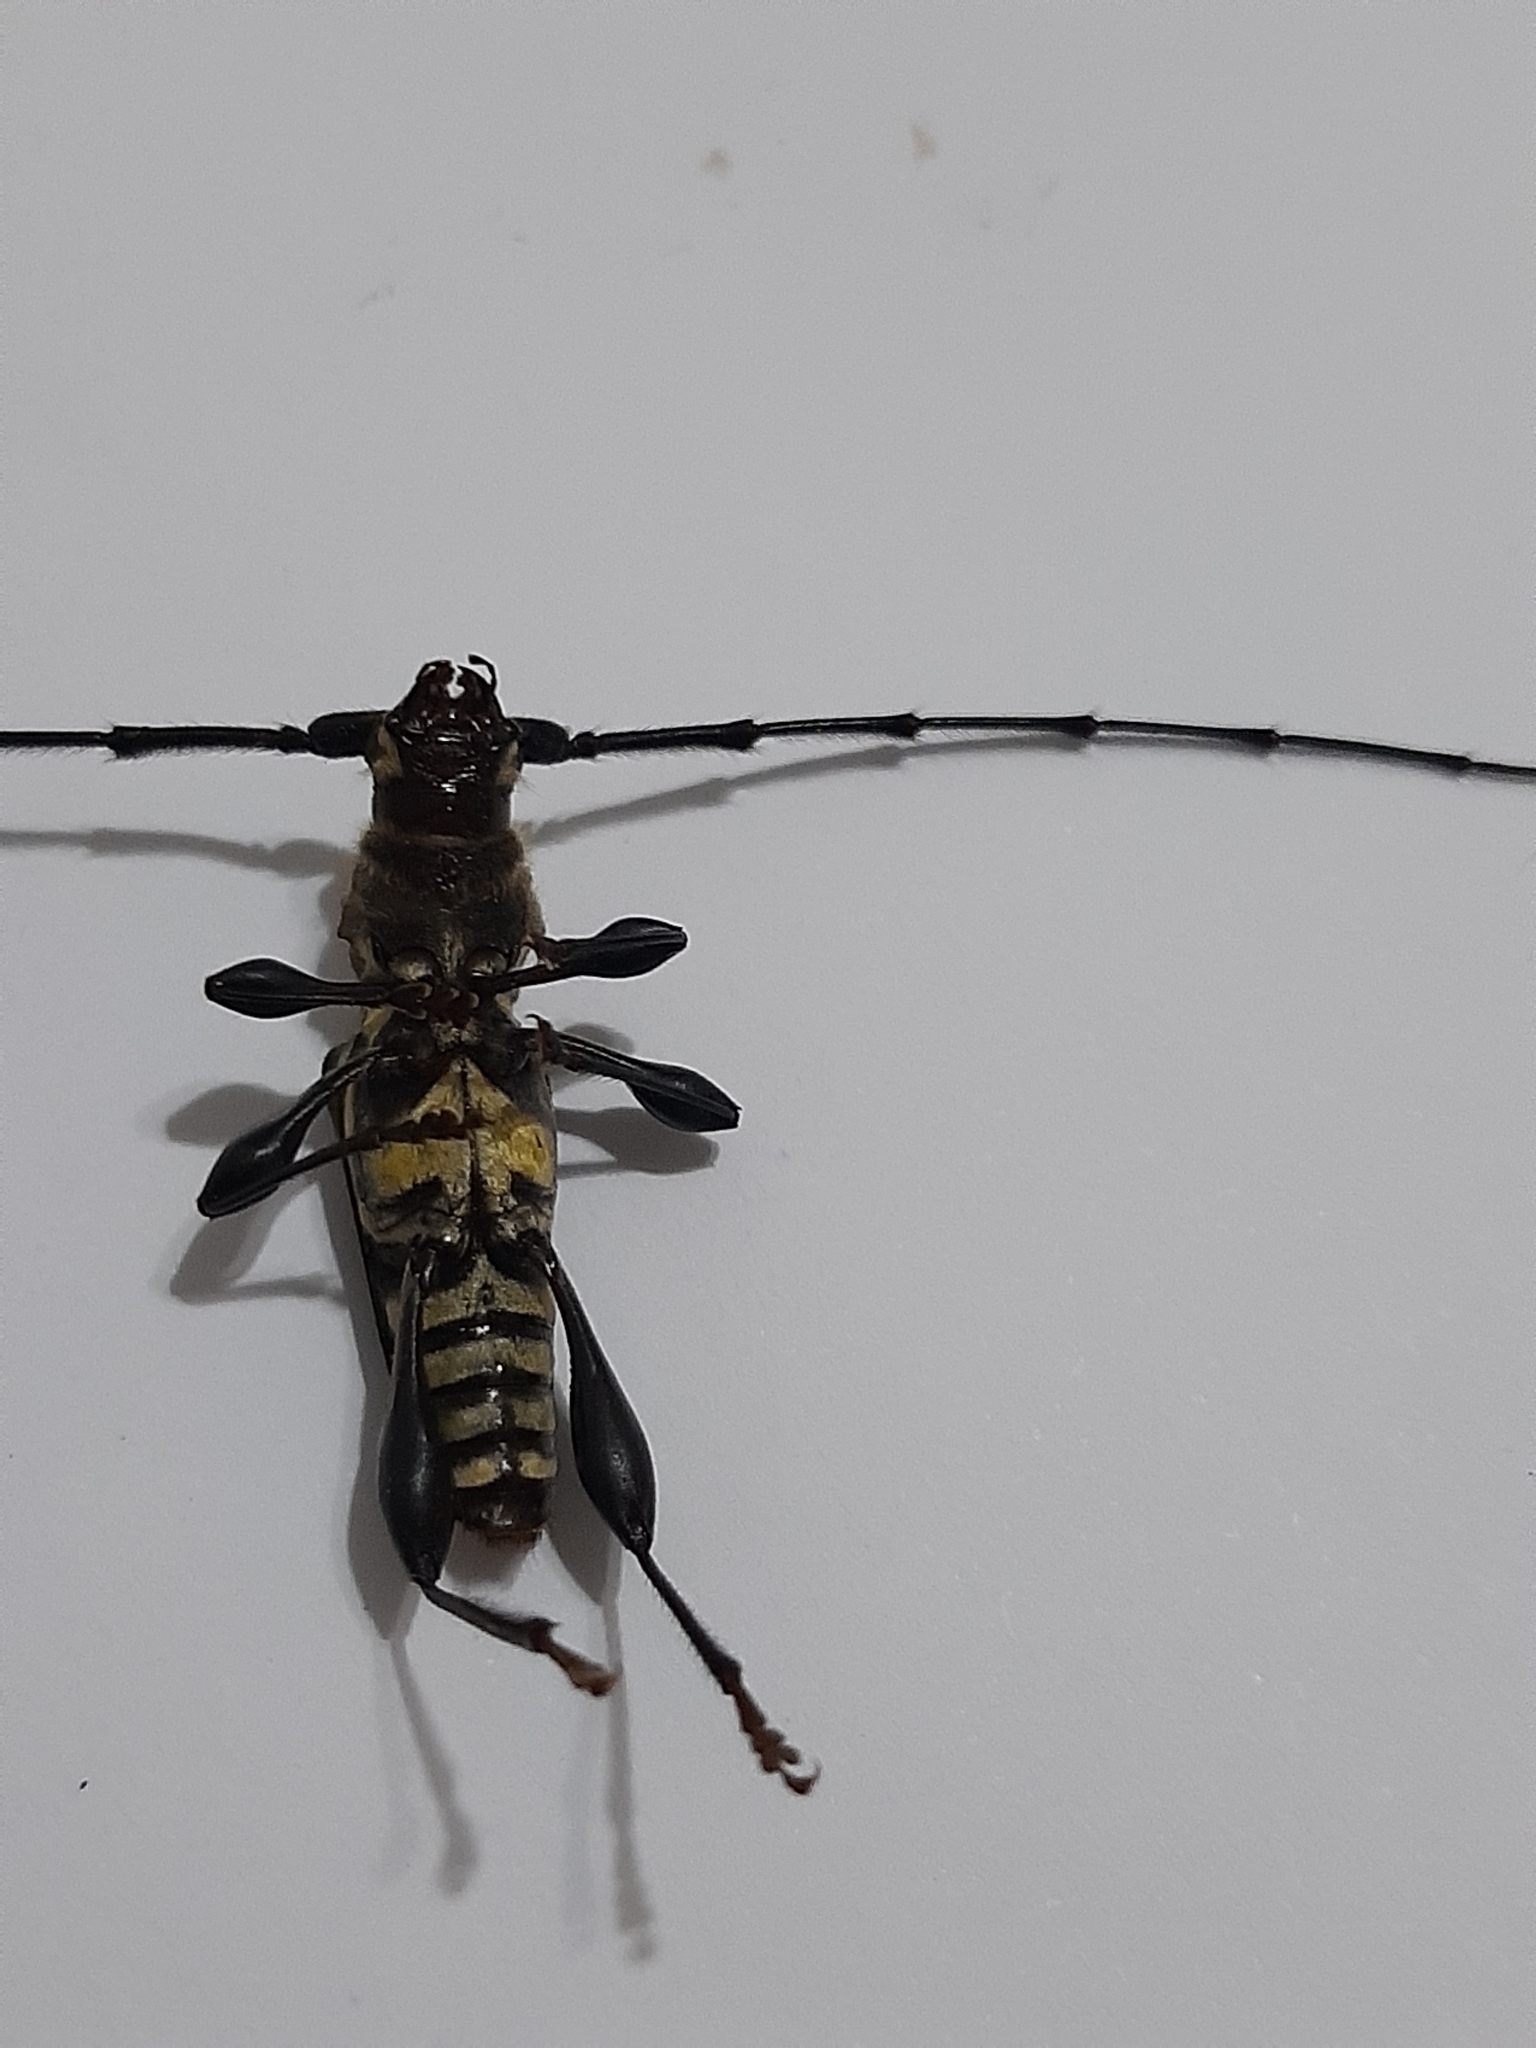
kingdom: Animalia
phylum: Arthropoda
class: Insecta
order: Coleoptera
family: Cerambycidae
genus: Ornithia
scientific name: Ornithia mexicana
